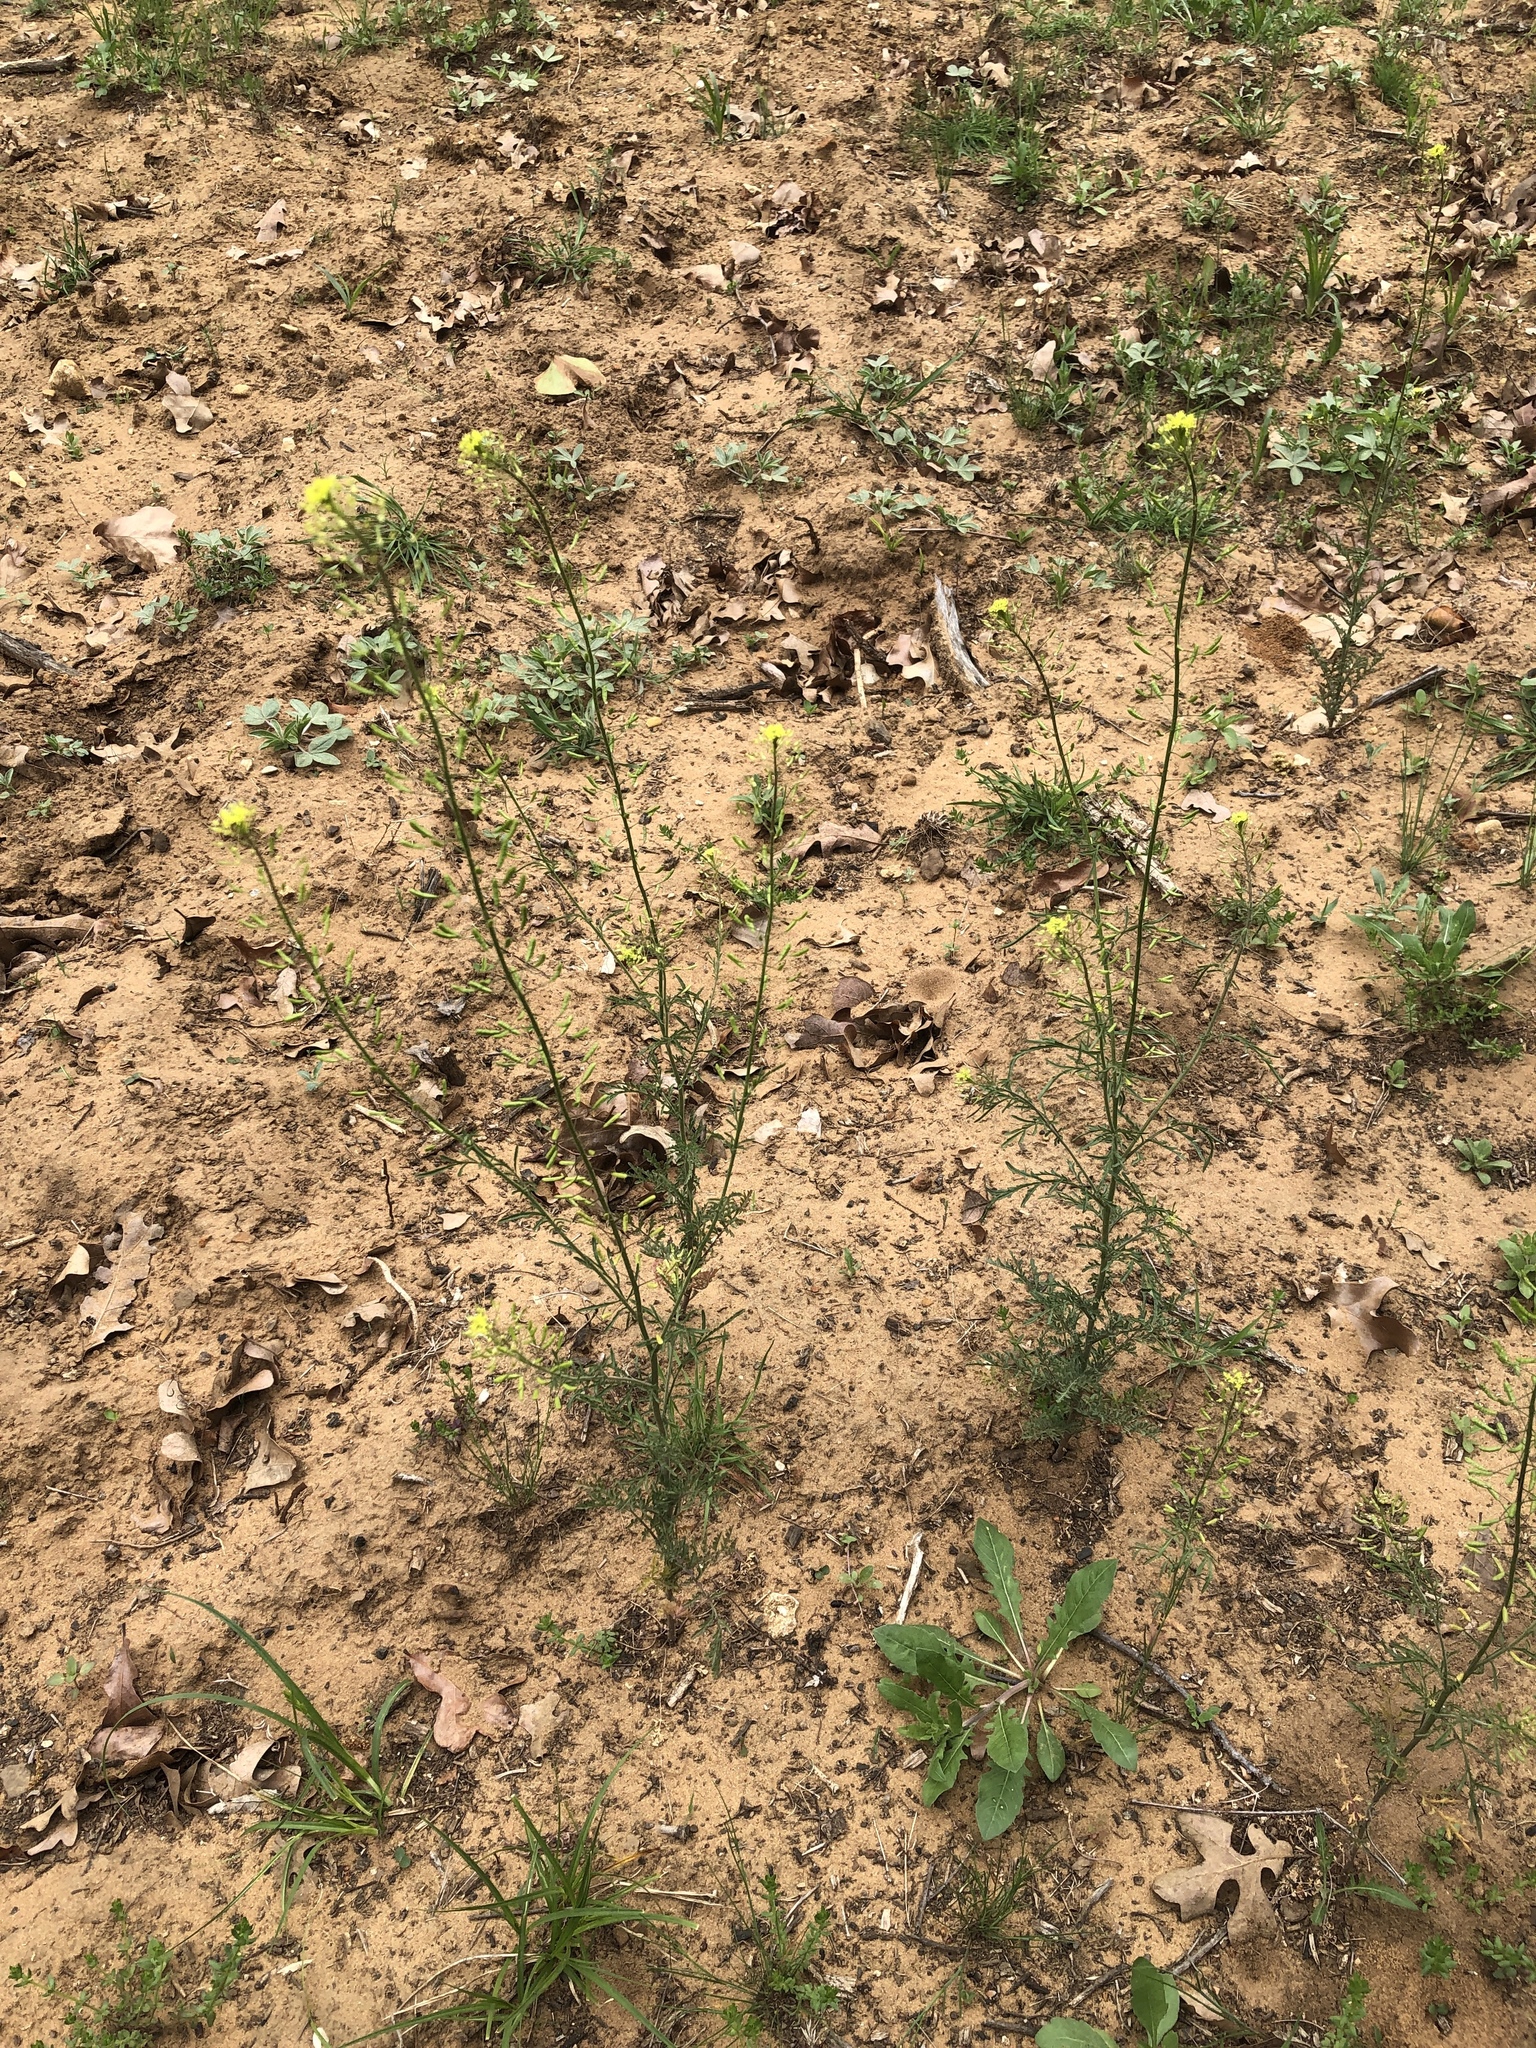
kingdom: Plantae
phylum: Tracheophyta
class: Magnoliopsida
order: Brassicales
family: Brassicaceae
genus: Descurainia
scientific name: Descurainia pinnata
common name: Western tansy mustard
